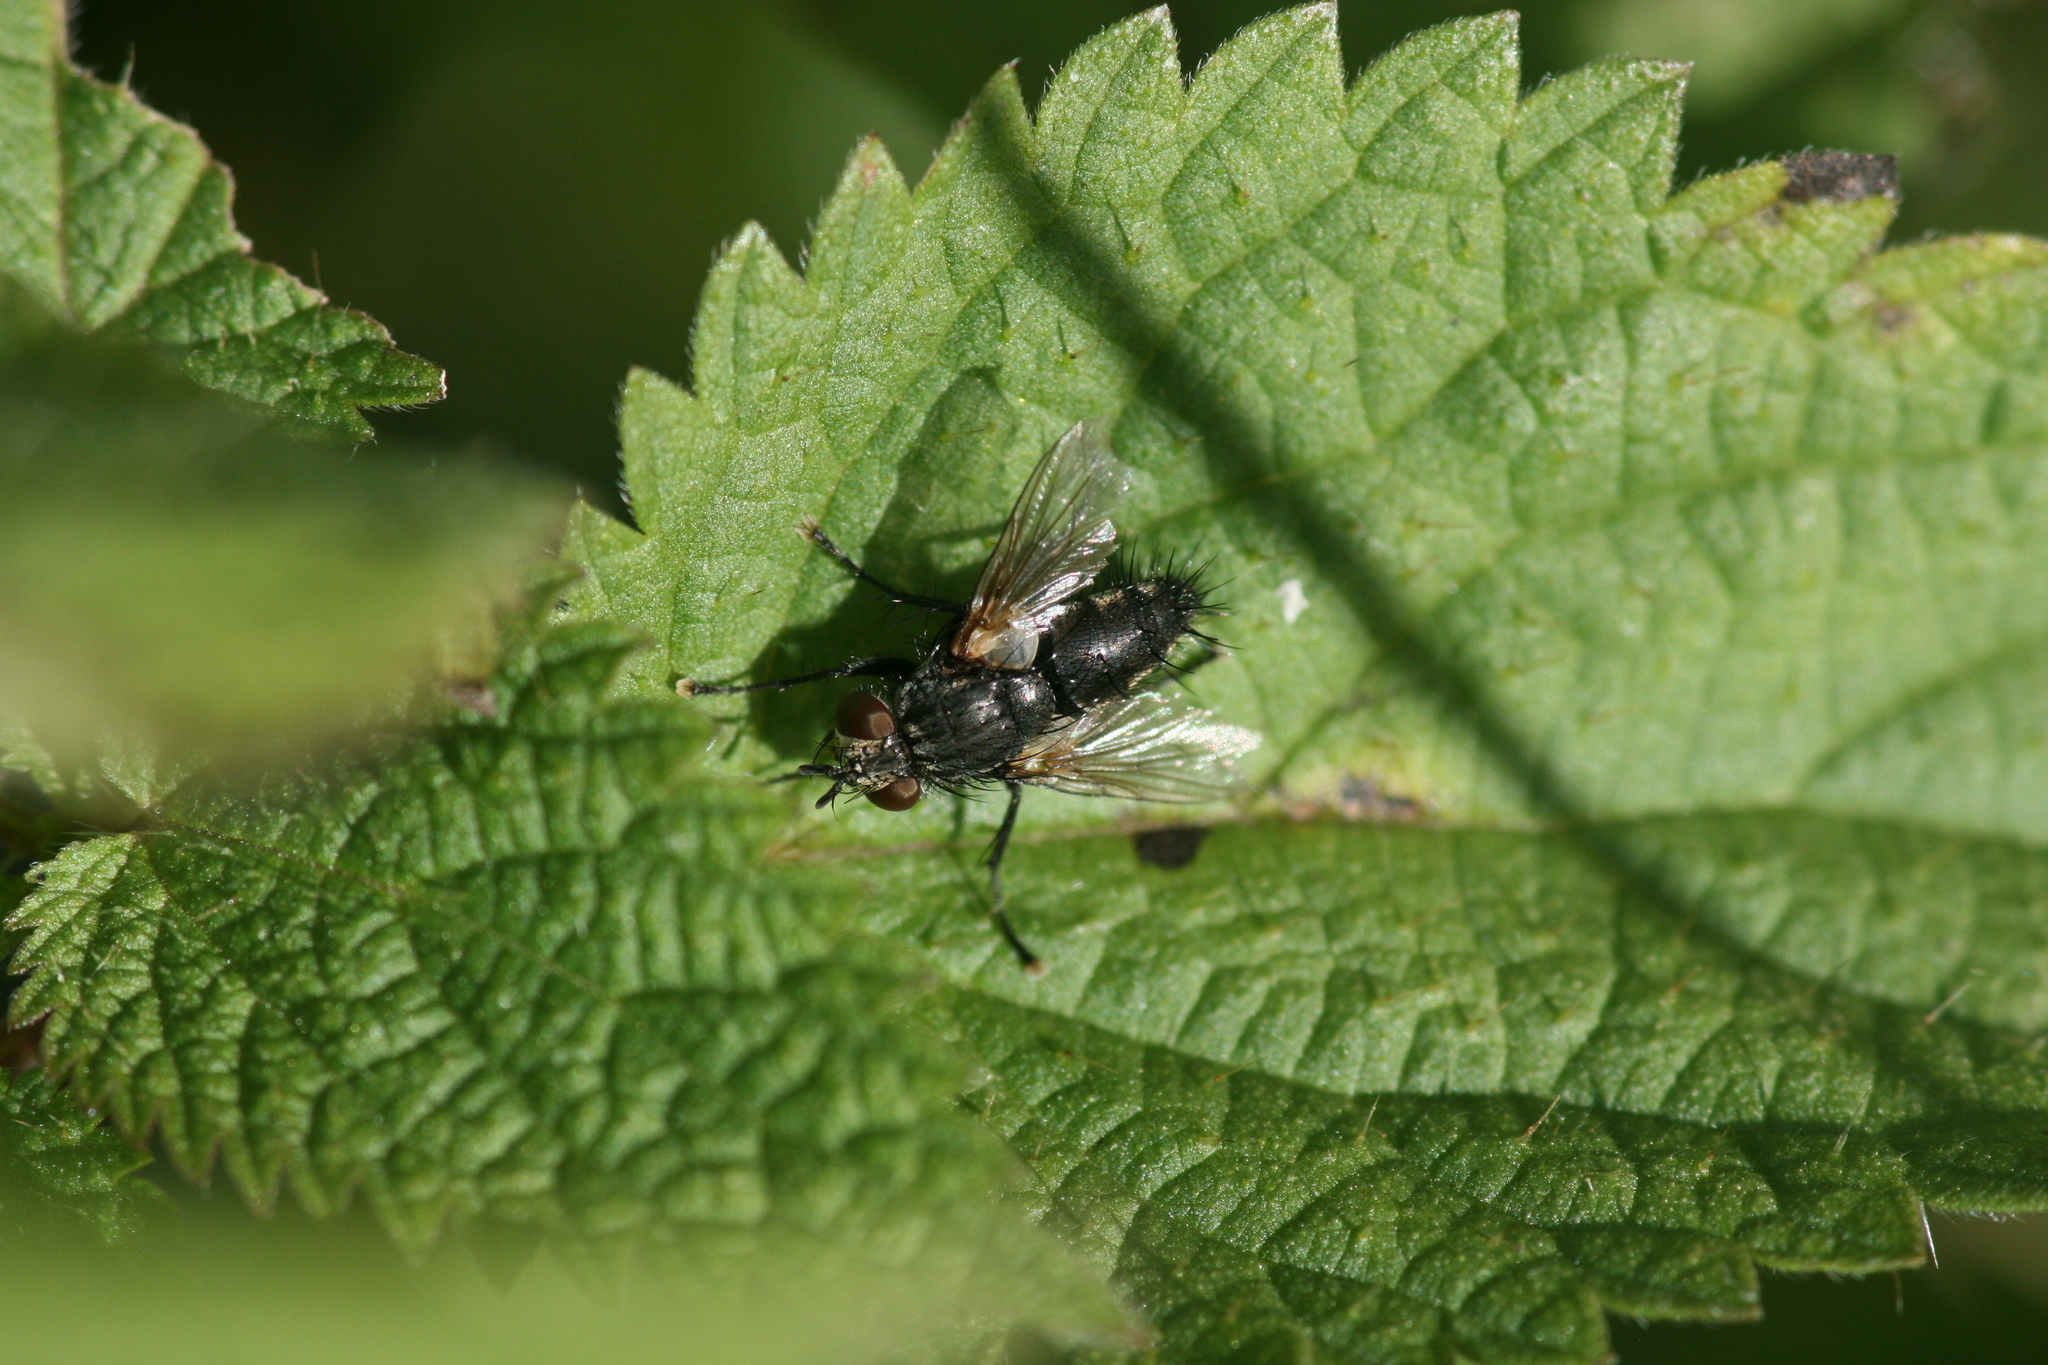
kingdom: Animalia
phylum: Arthropoda
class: Insecta
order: Diptera
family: Tachinidae
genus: Voria
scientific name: Voria ruralis
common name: Parasitic fly
